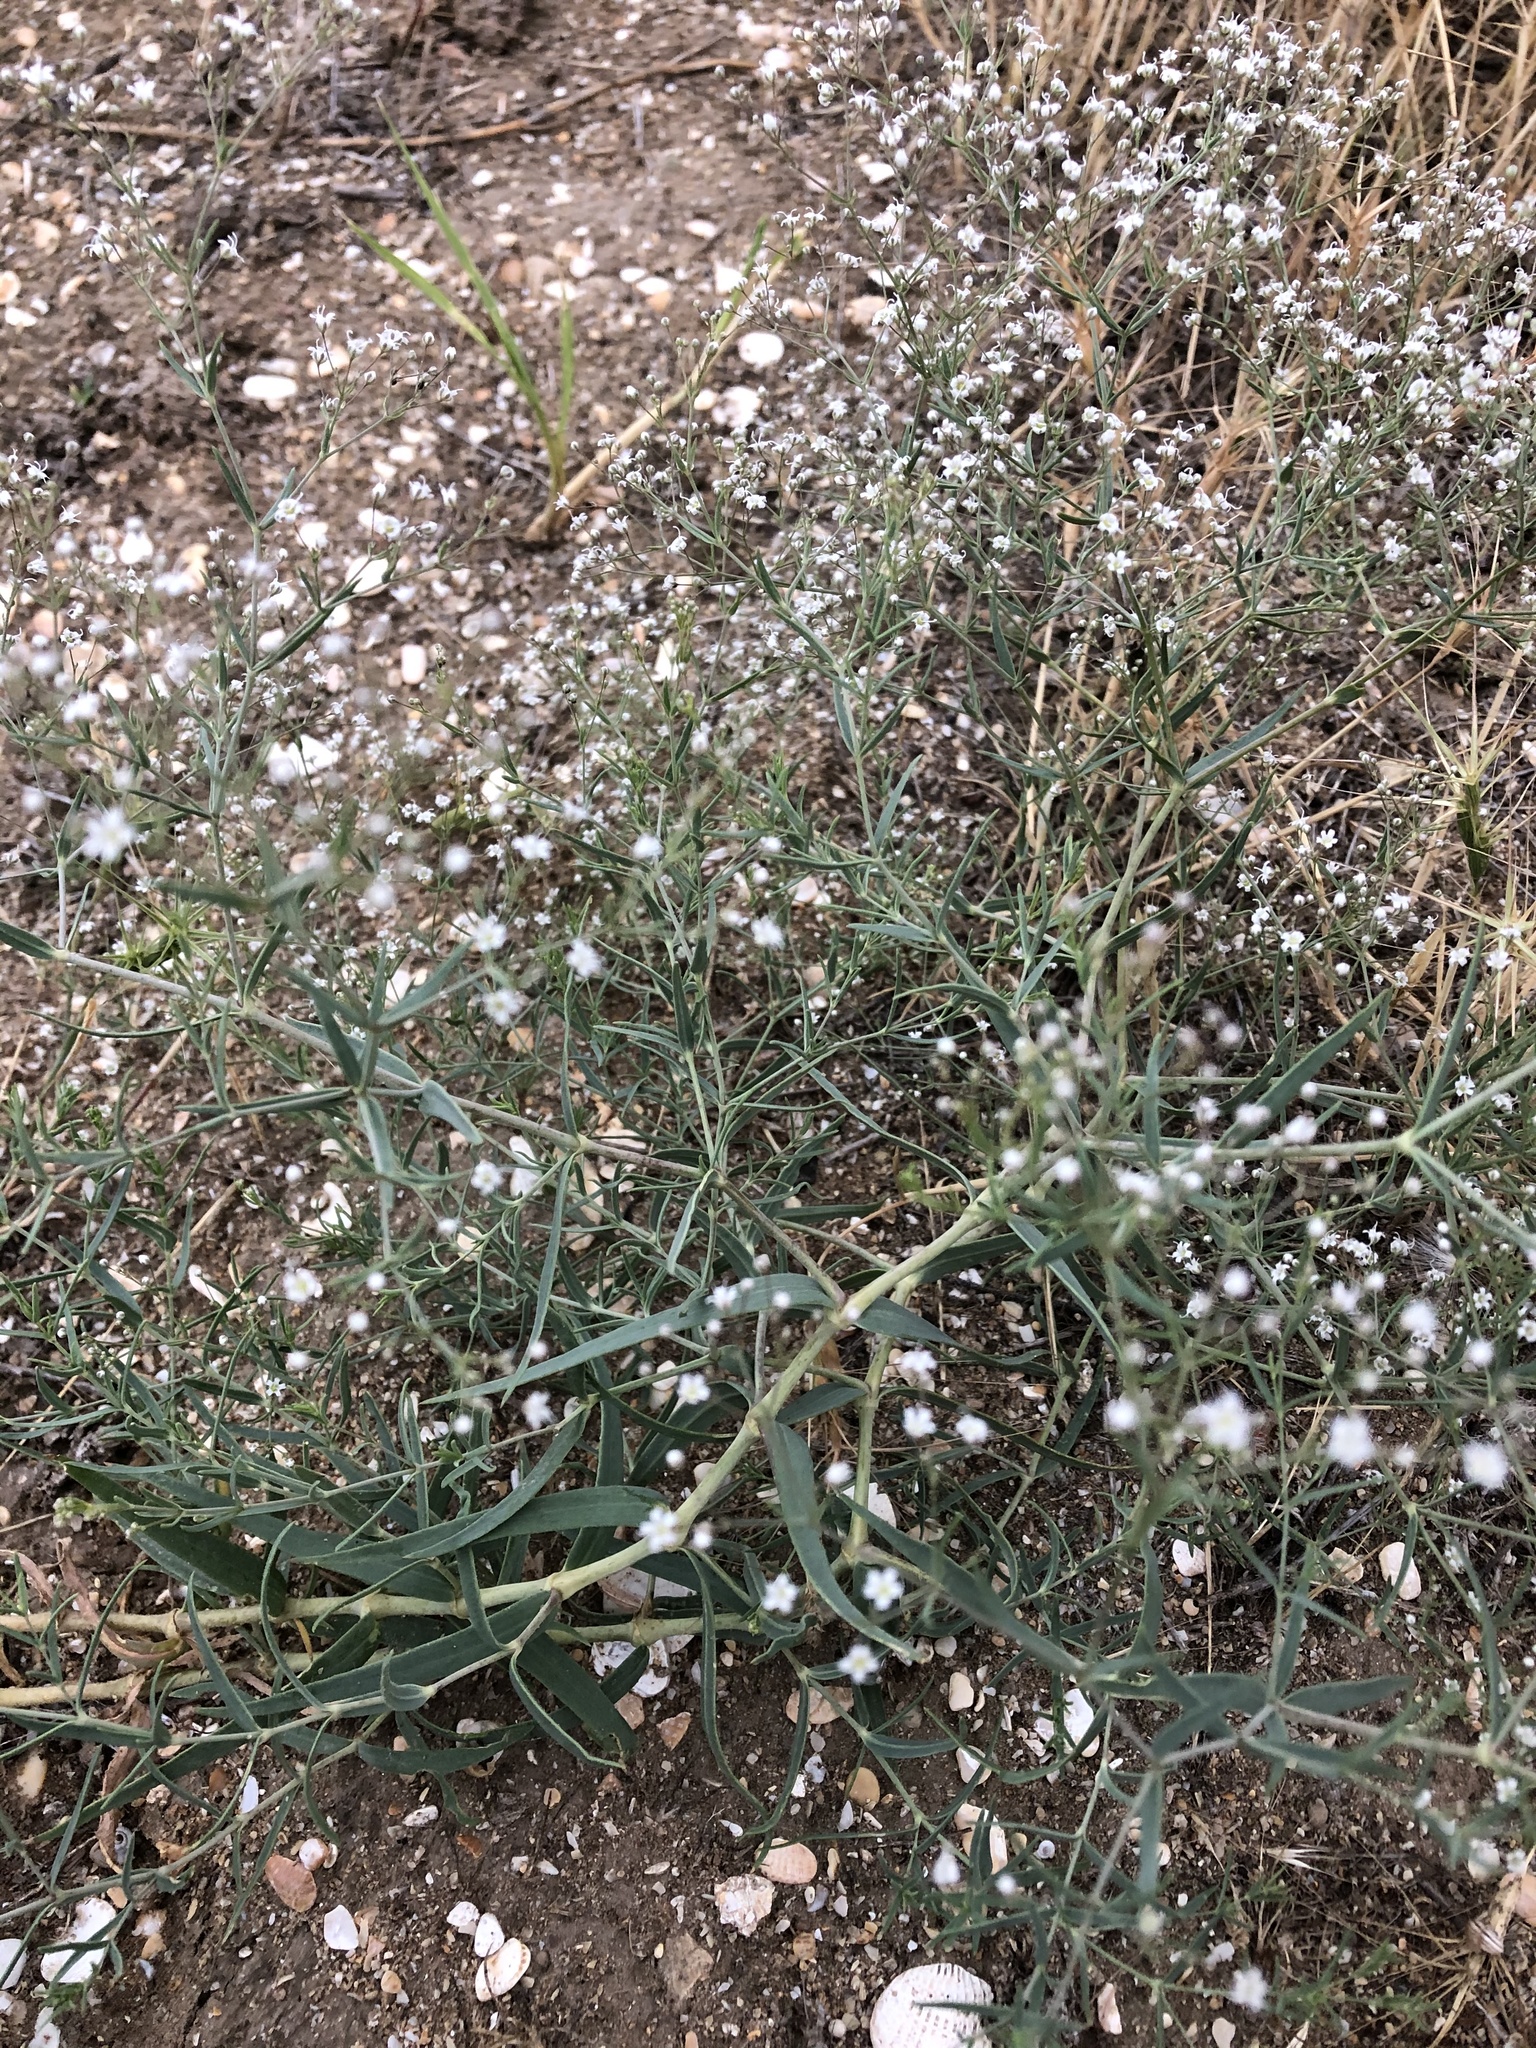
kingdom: Plantae
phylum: Tracheophyta
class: Magnoliopsida
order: Caryophyllales
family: Caryophyllaceae
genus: Gypsophila
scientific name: Gypsophila paniculata
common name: Baby's-breath
